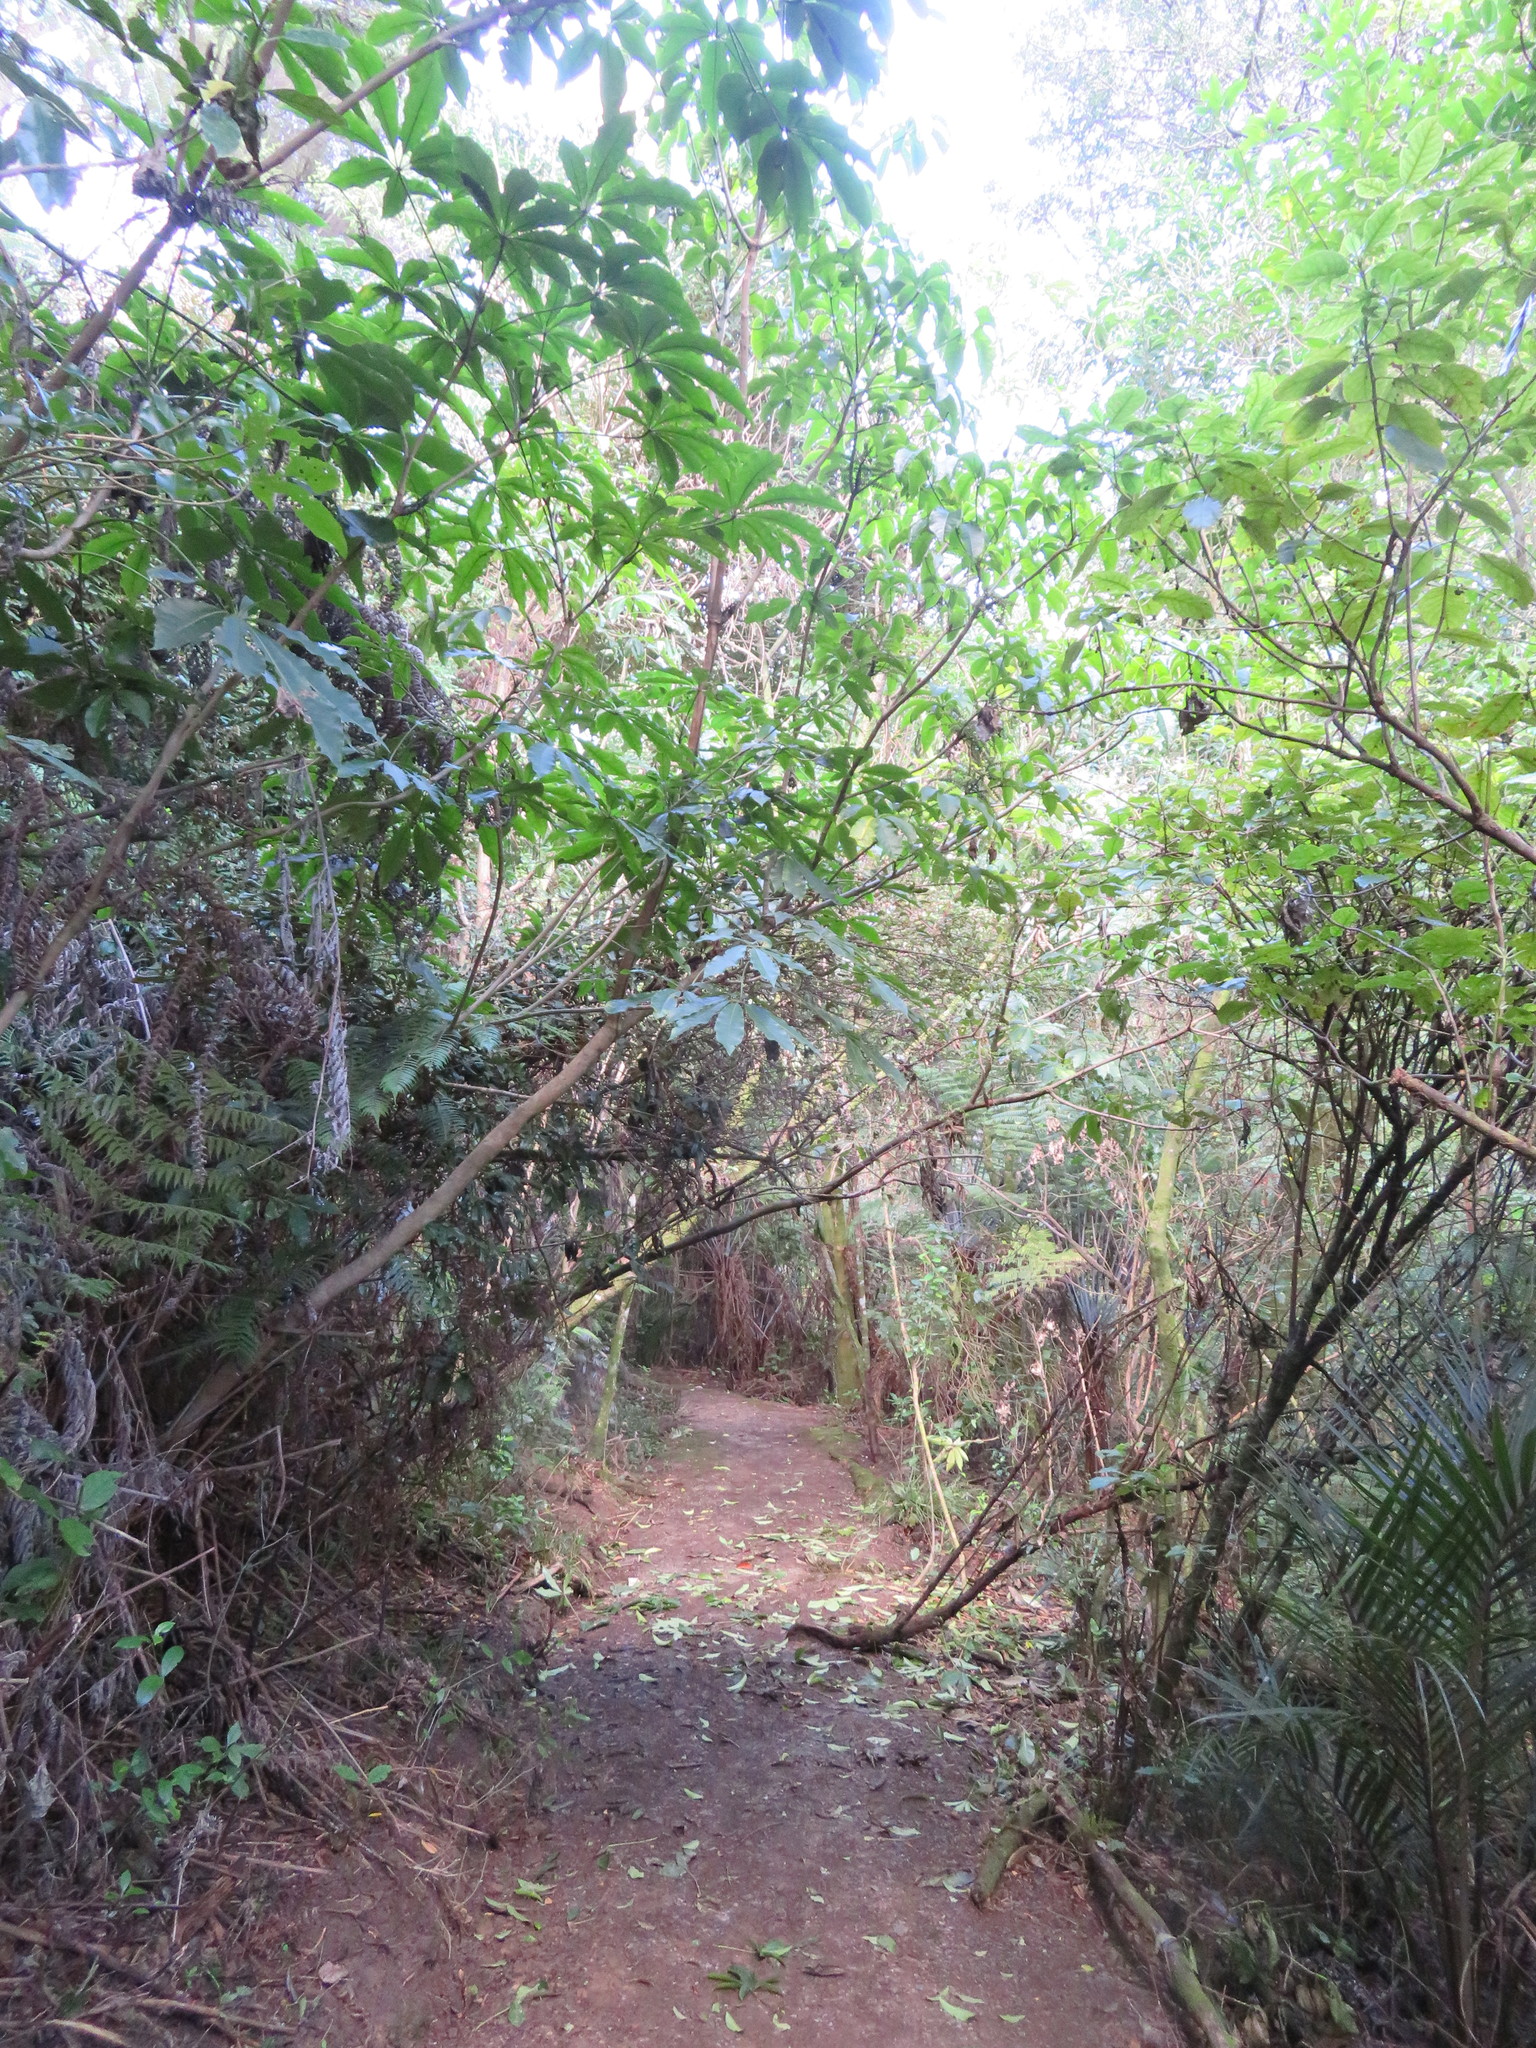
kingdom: Plantae
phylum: Tracheophyta
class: Magnoliopsida
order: Apiales
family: Araliaceae
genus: Schefflera
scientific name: Schefflera digitata
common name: Pate
